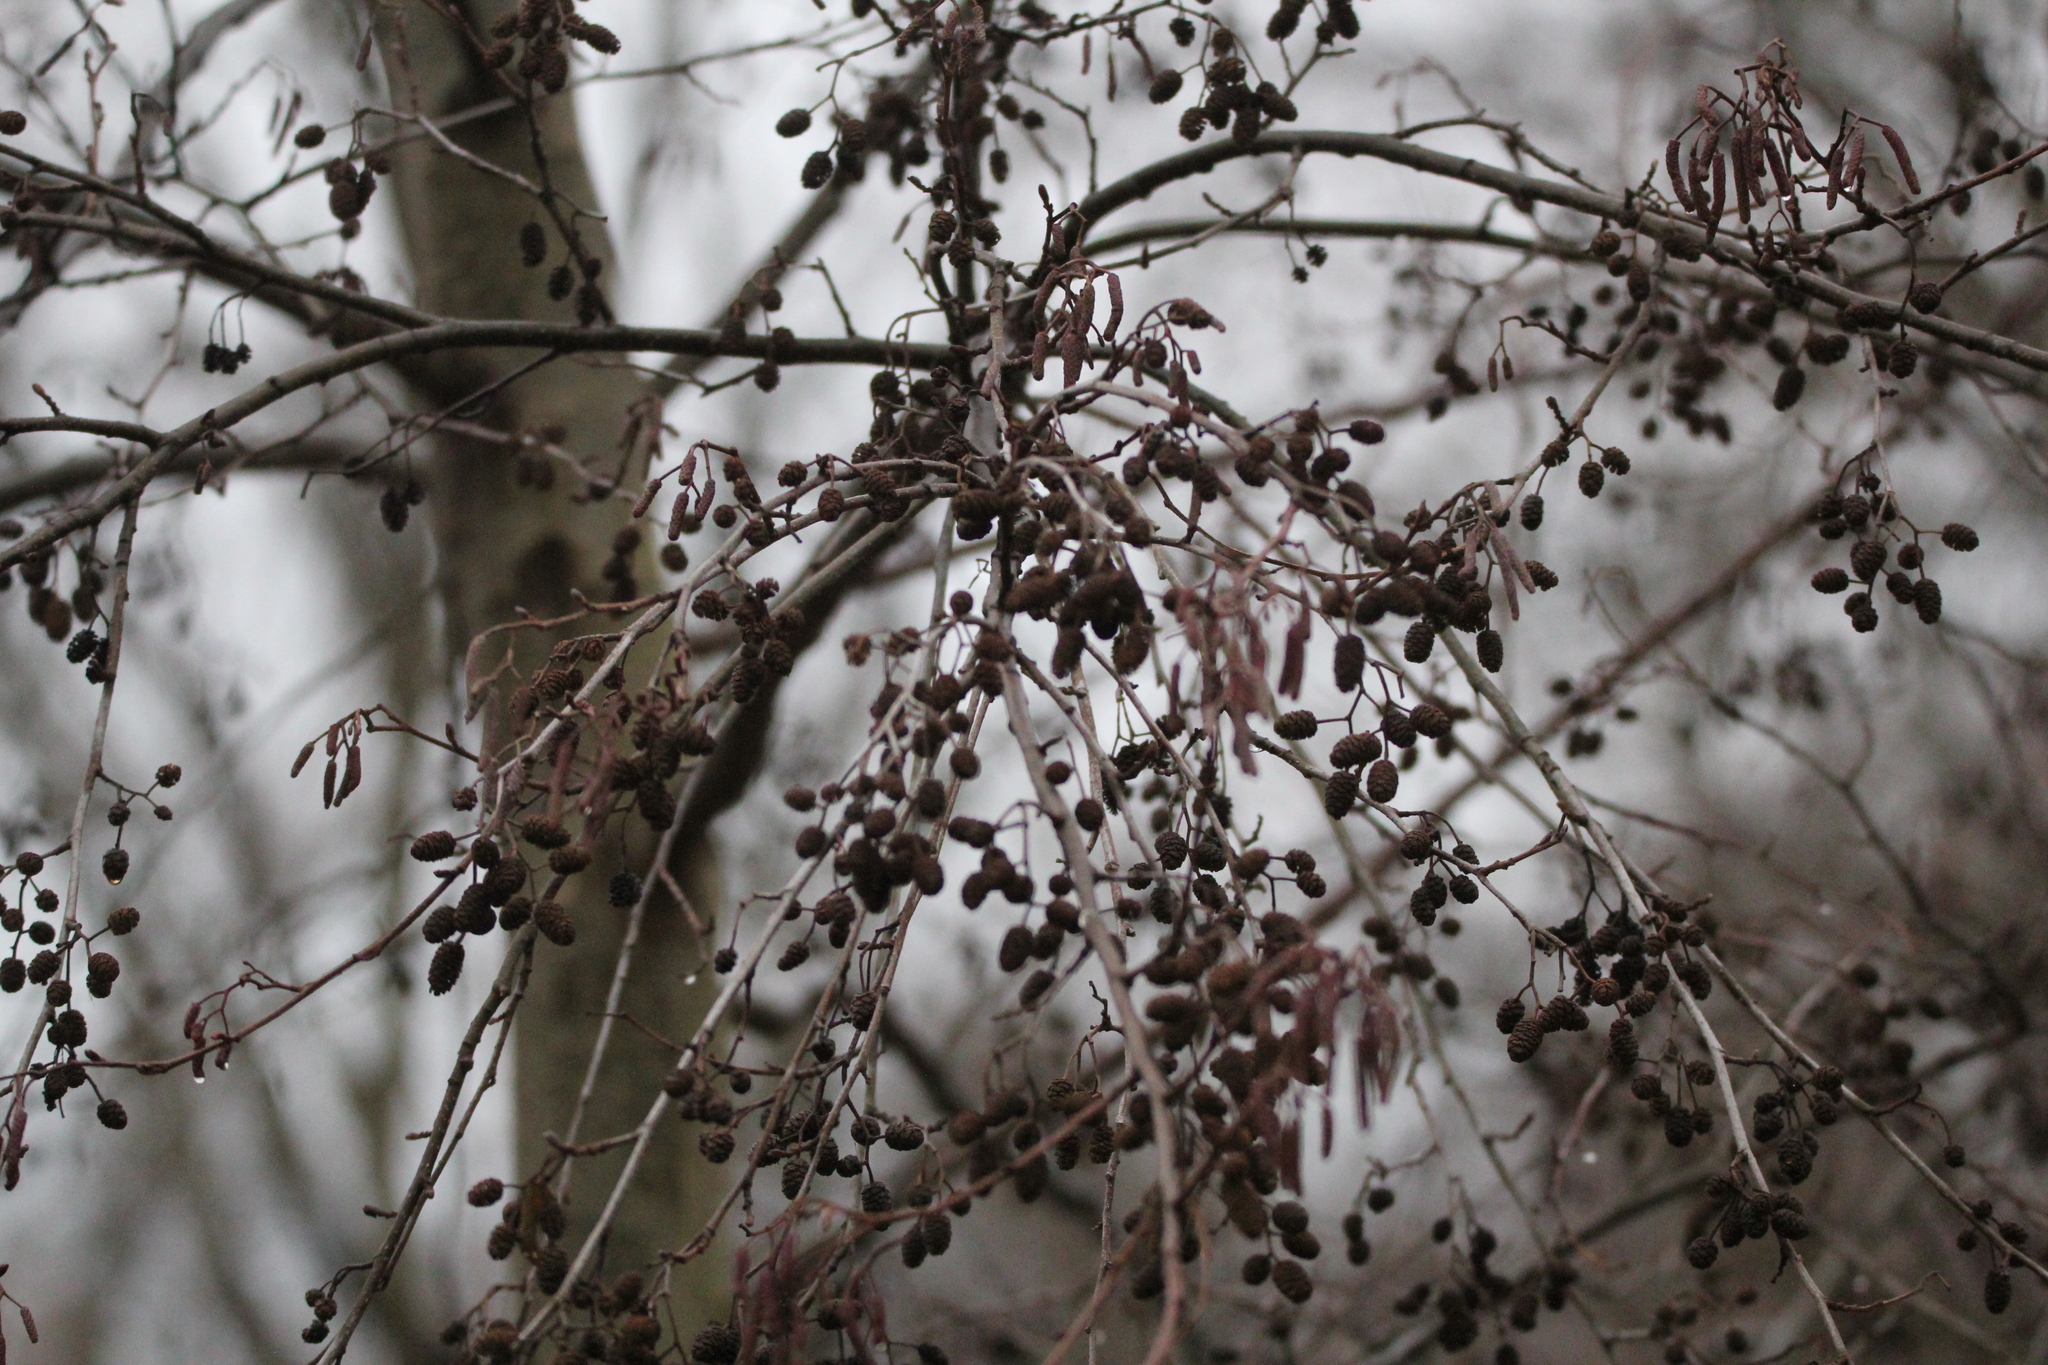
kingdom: Plantae
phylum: Tracheophyta
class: Magnoliopsida
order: Fagales
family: Betulaceae
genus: Alnus
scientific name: Alnus glutinosa
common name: Black alder
